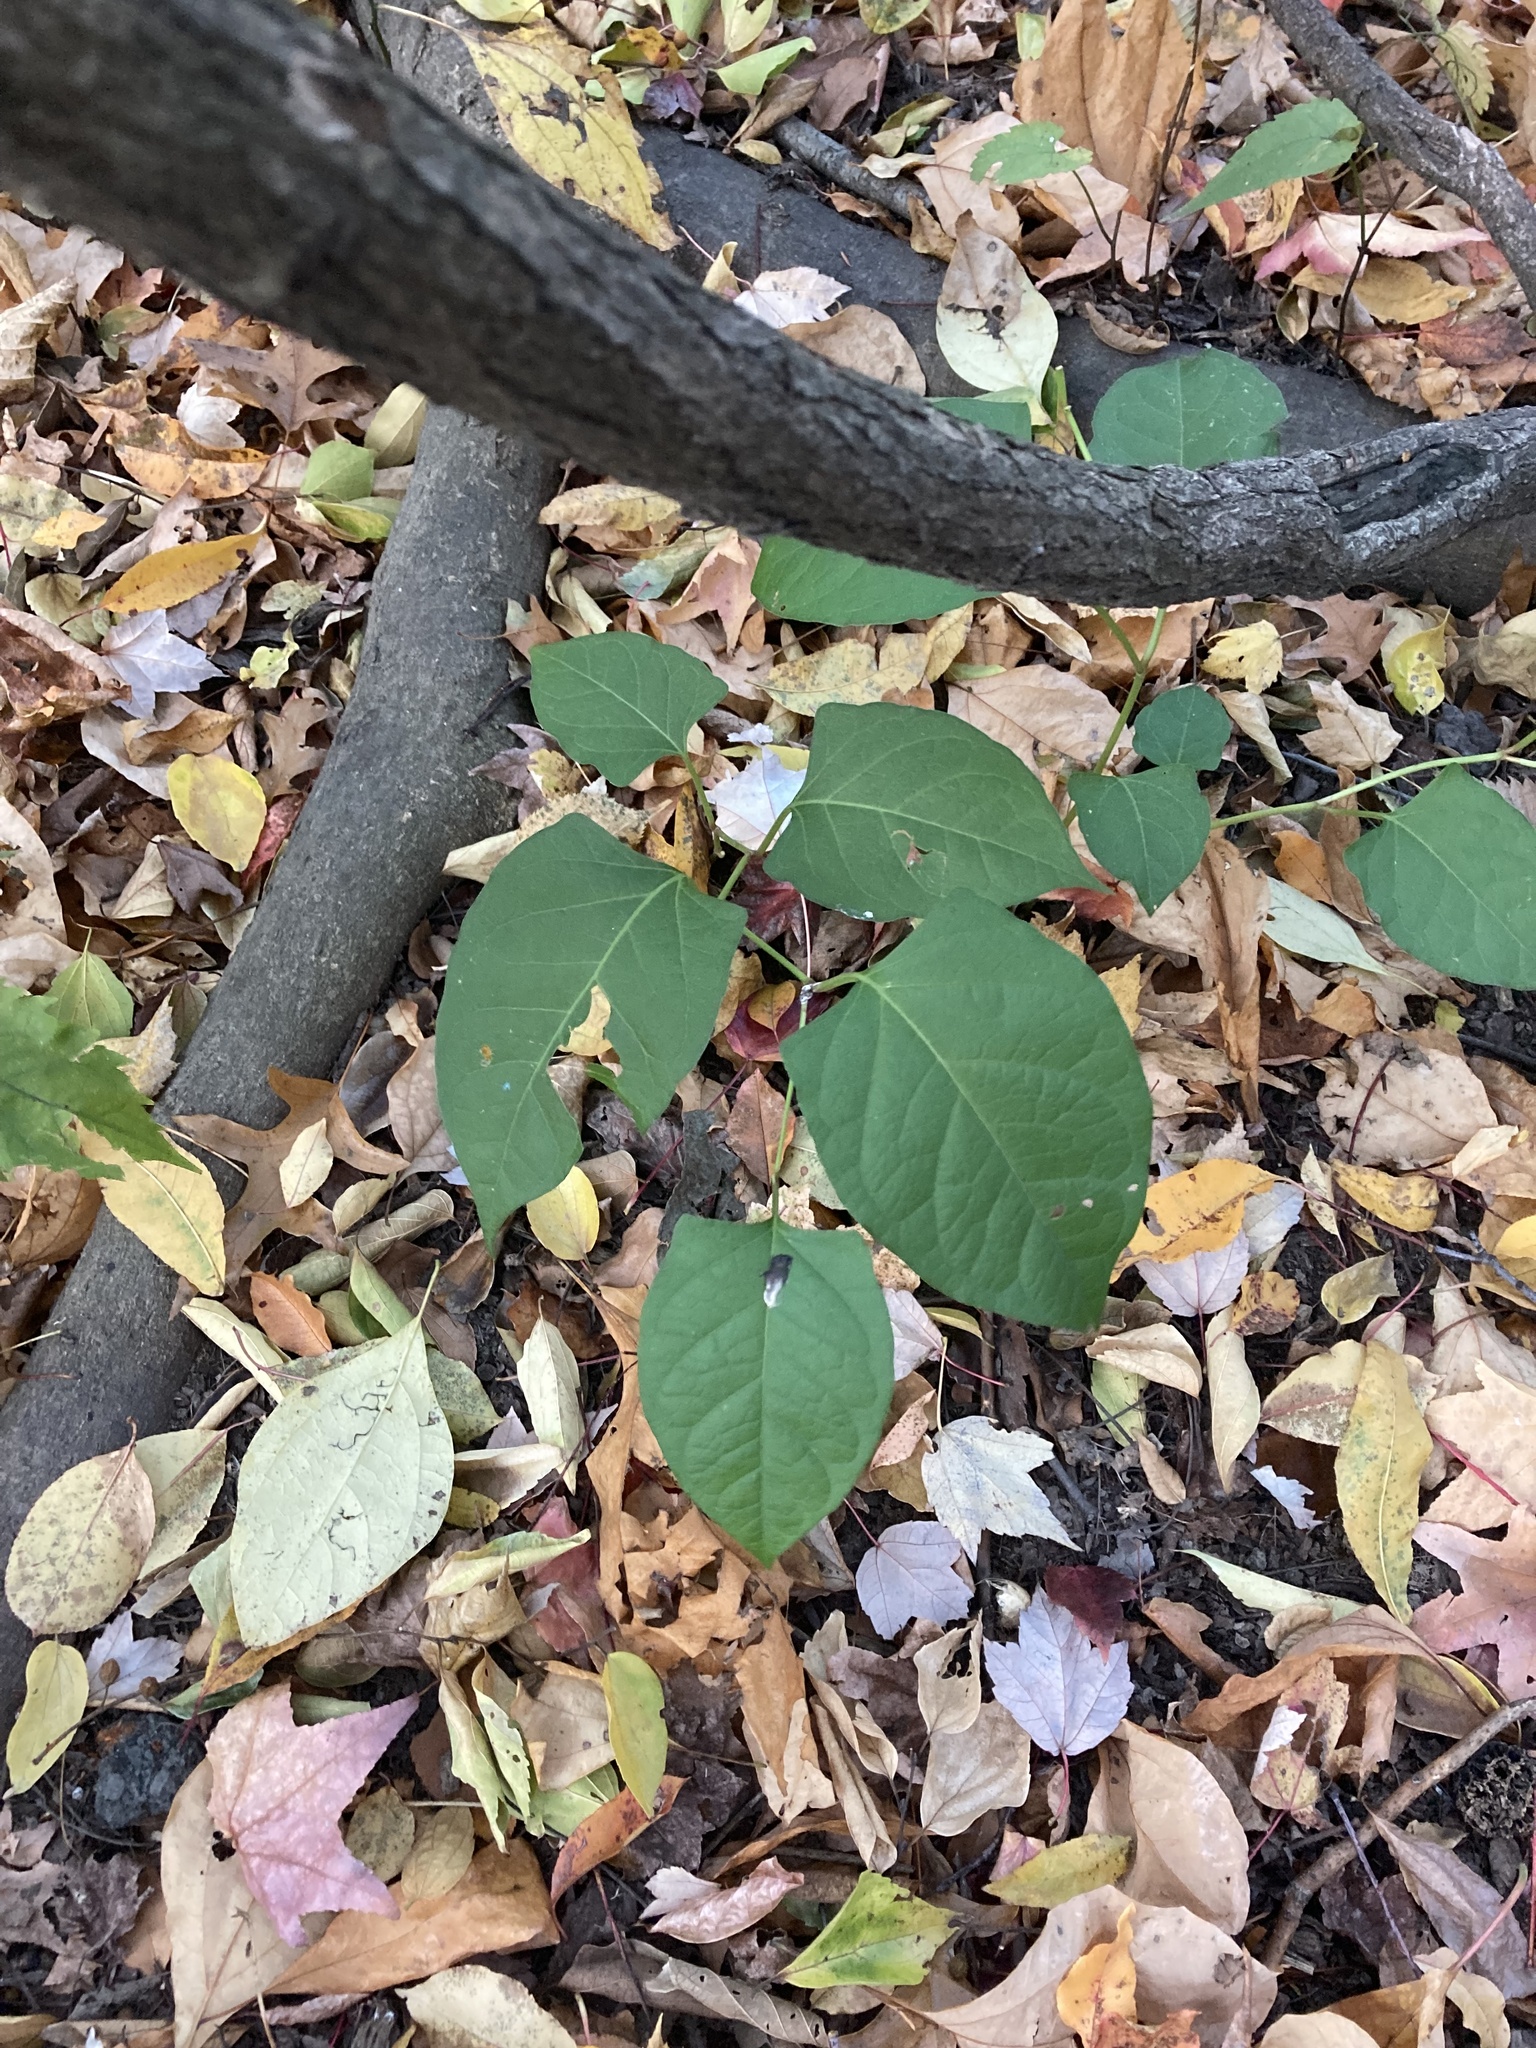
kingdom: Plantae
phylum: Tracheophyta
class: Magnoliopsida
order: Caryophyllales
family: Polygonaceae
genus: Reynoutria
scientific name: Reynoutria japonica
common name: Japanese knotweed
